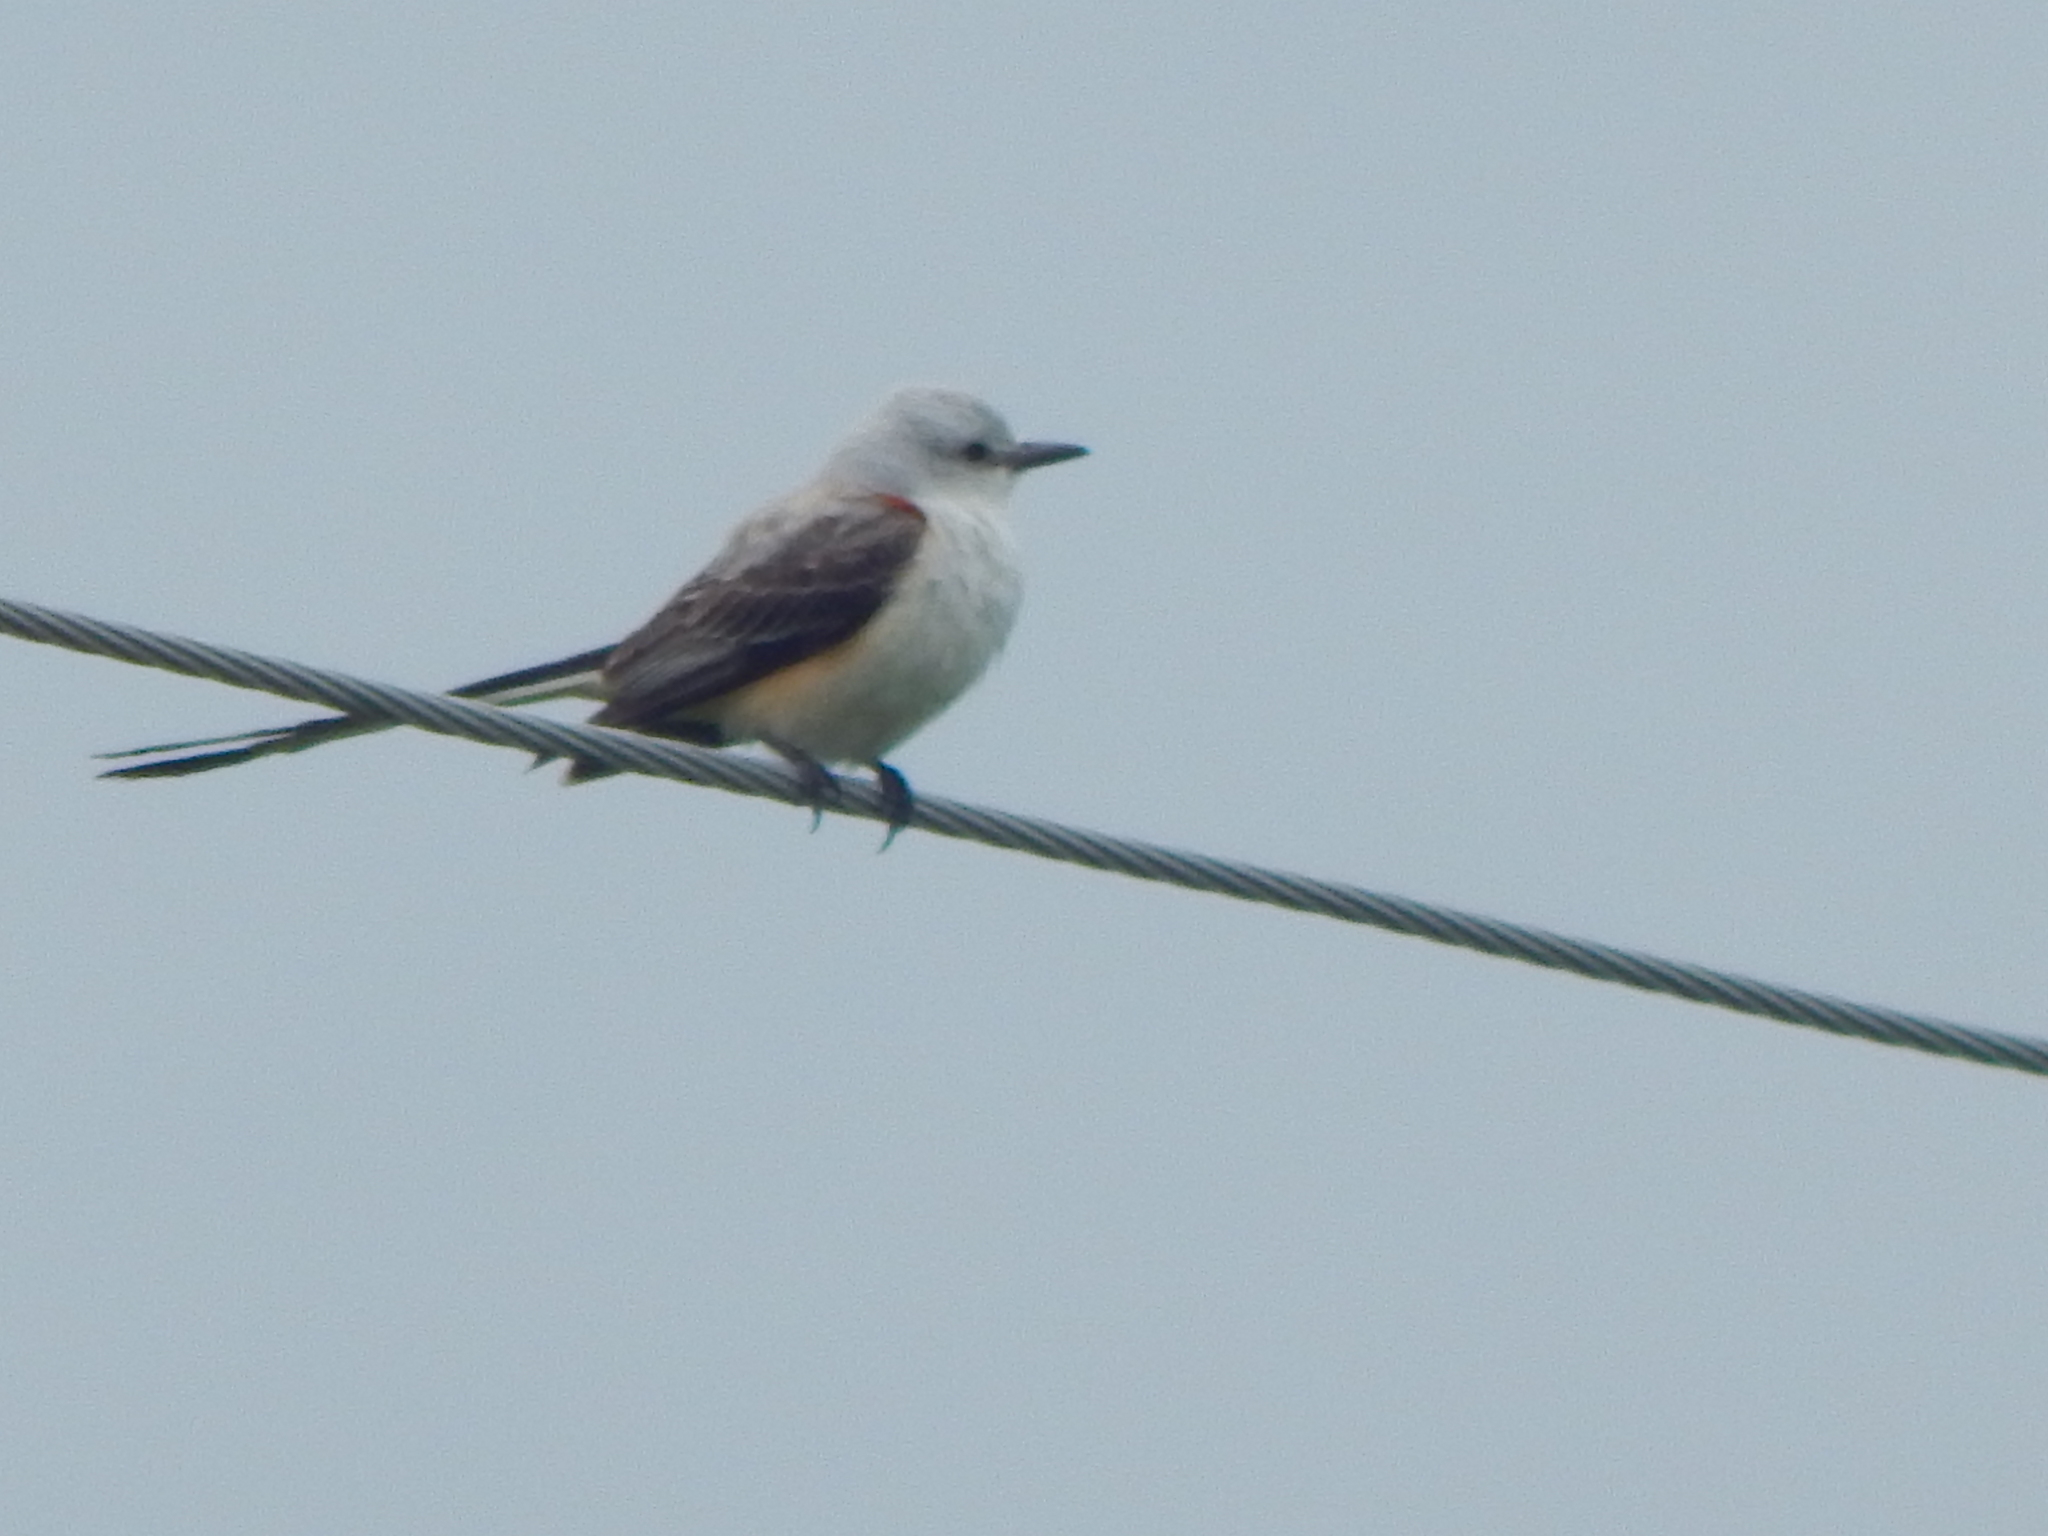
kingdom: Animalia
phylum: Chordata
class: Aves
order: Passeriformes
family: Tyrannidae
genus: Tyrannus
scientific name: Tyrannus forficatus
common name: Scissor-tailed flycatcher
